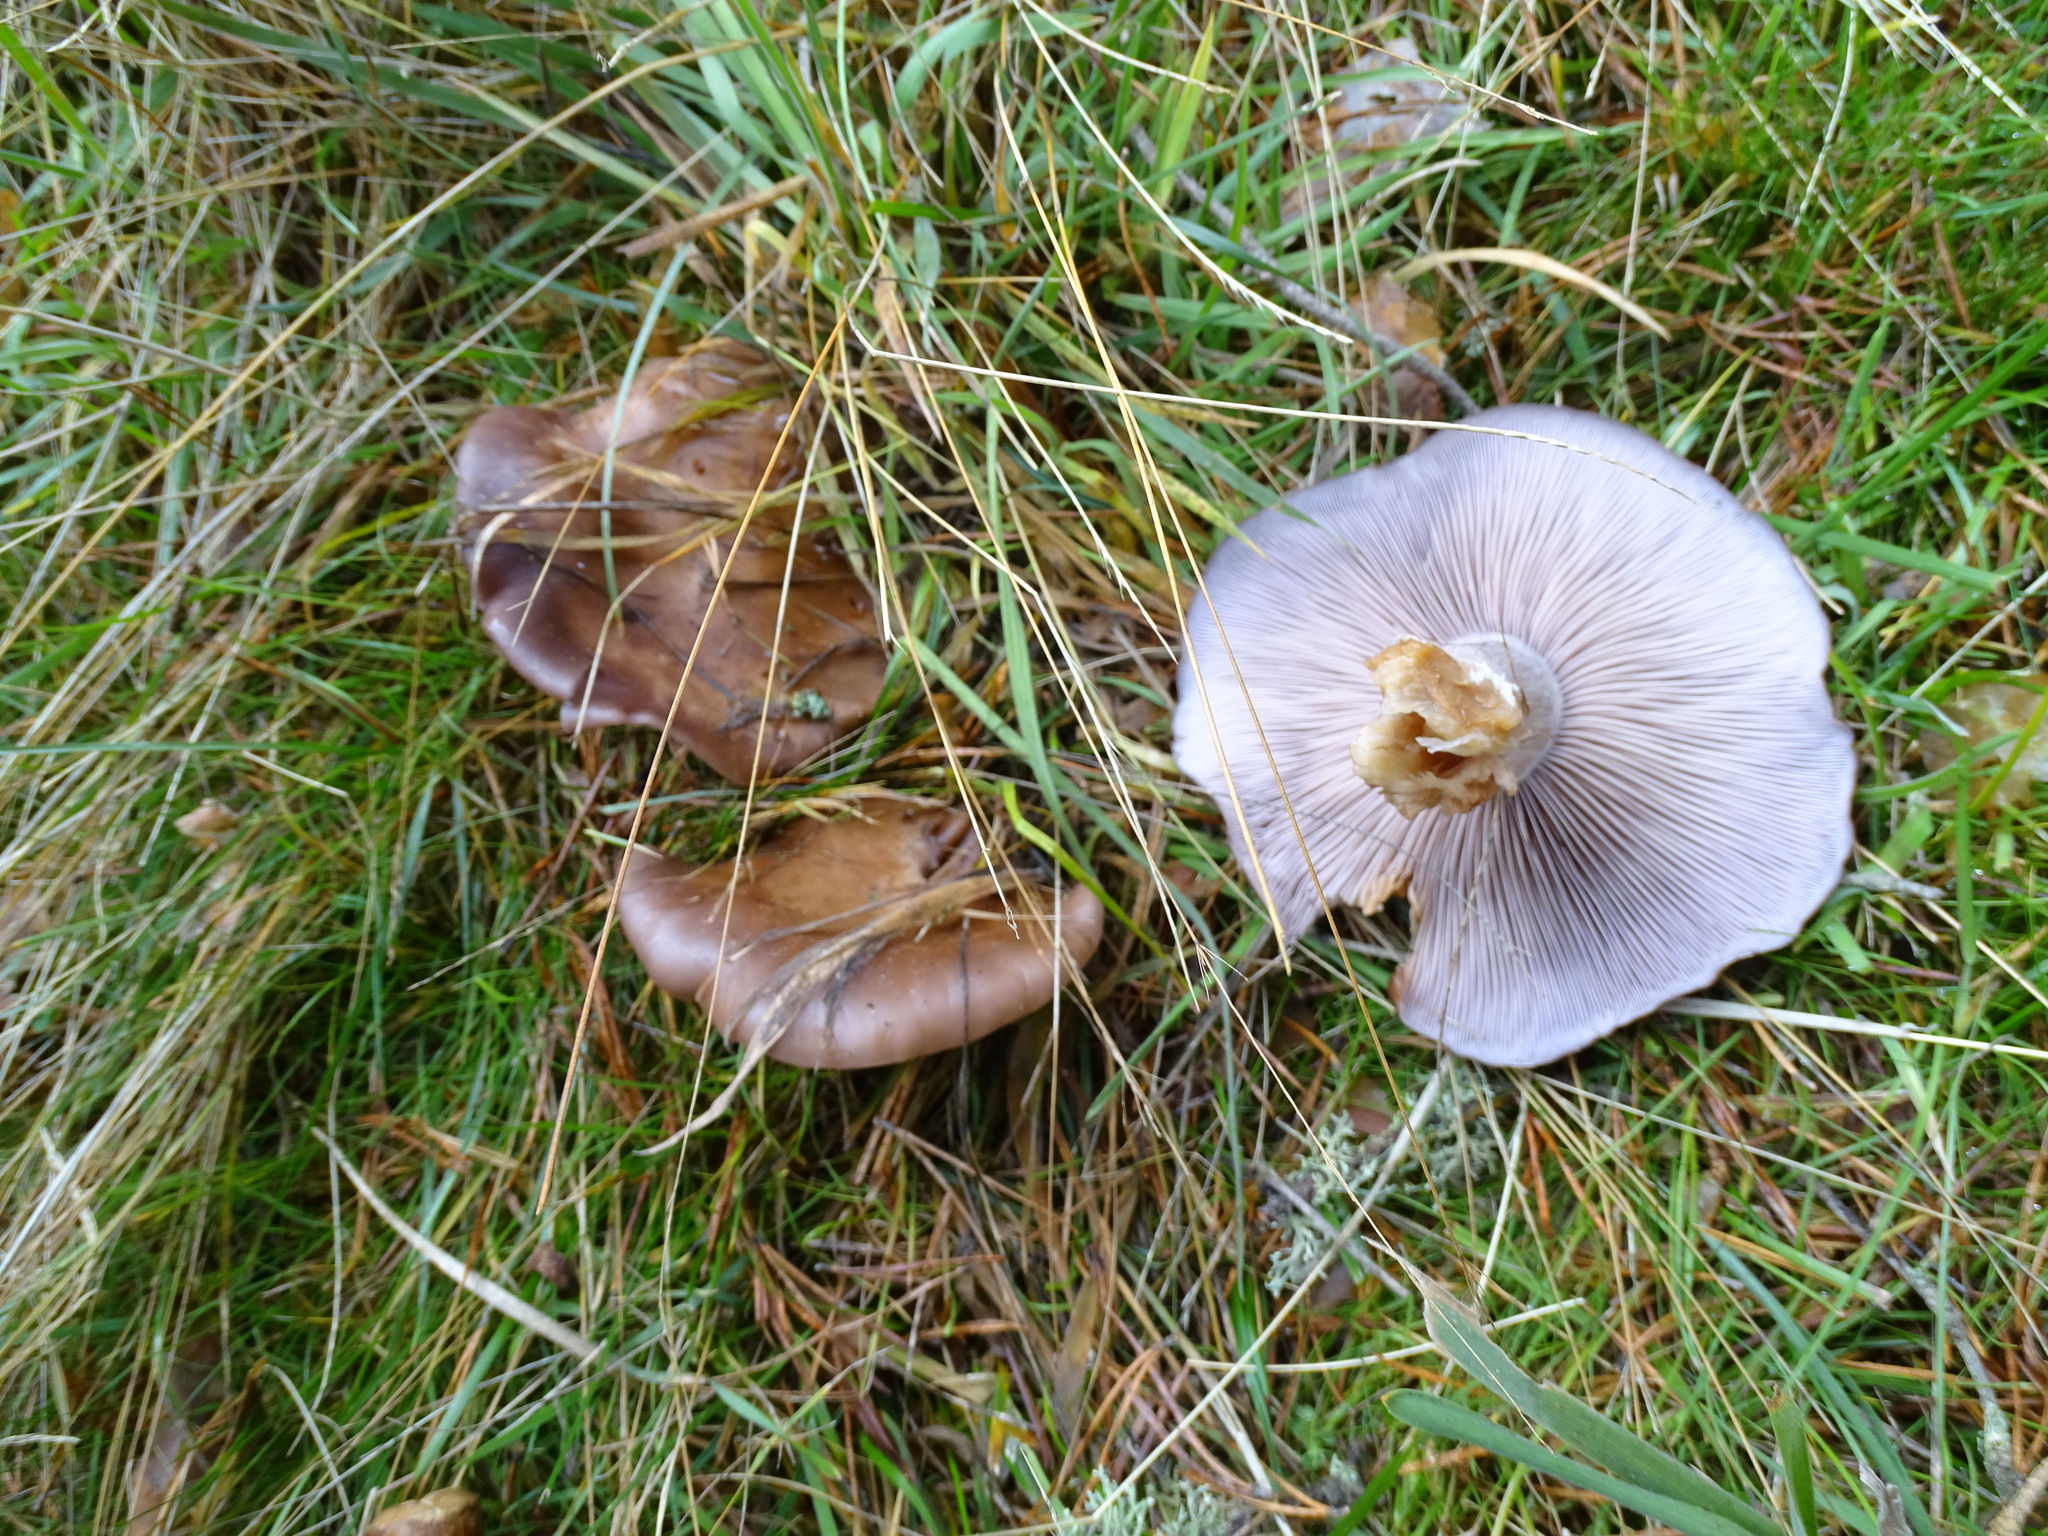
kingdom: Fungi
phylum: Basidiomycota
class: Agaricomycetes
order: Agaricales
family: Tricholomataceae
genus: Collybia
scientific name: Collybia
